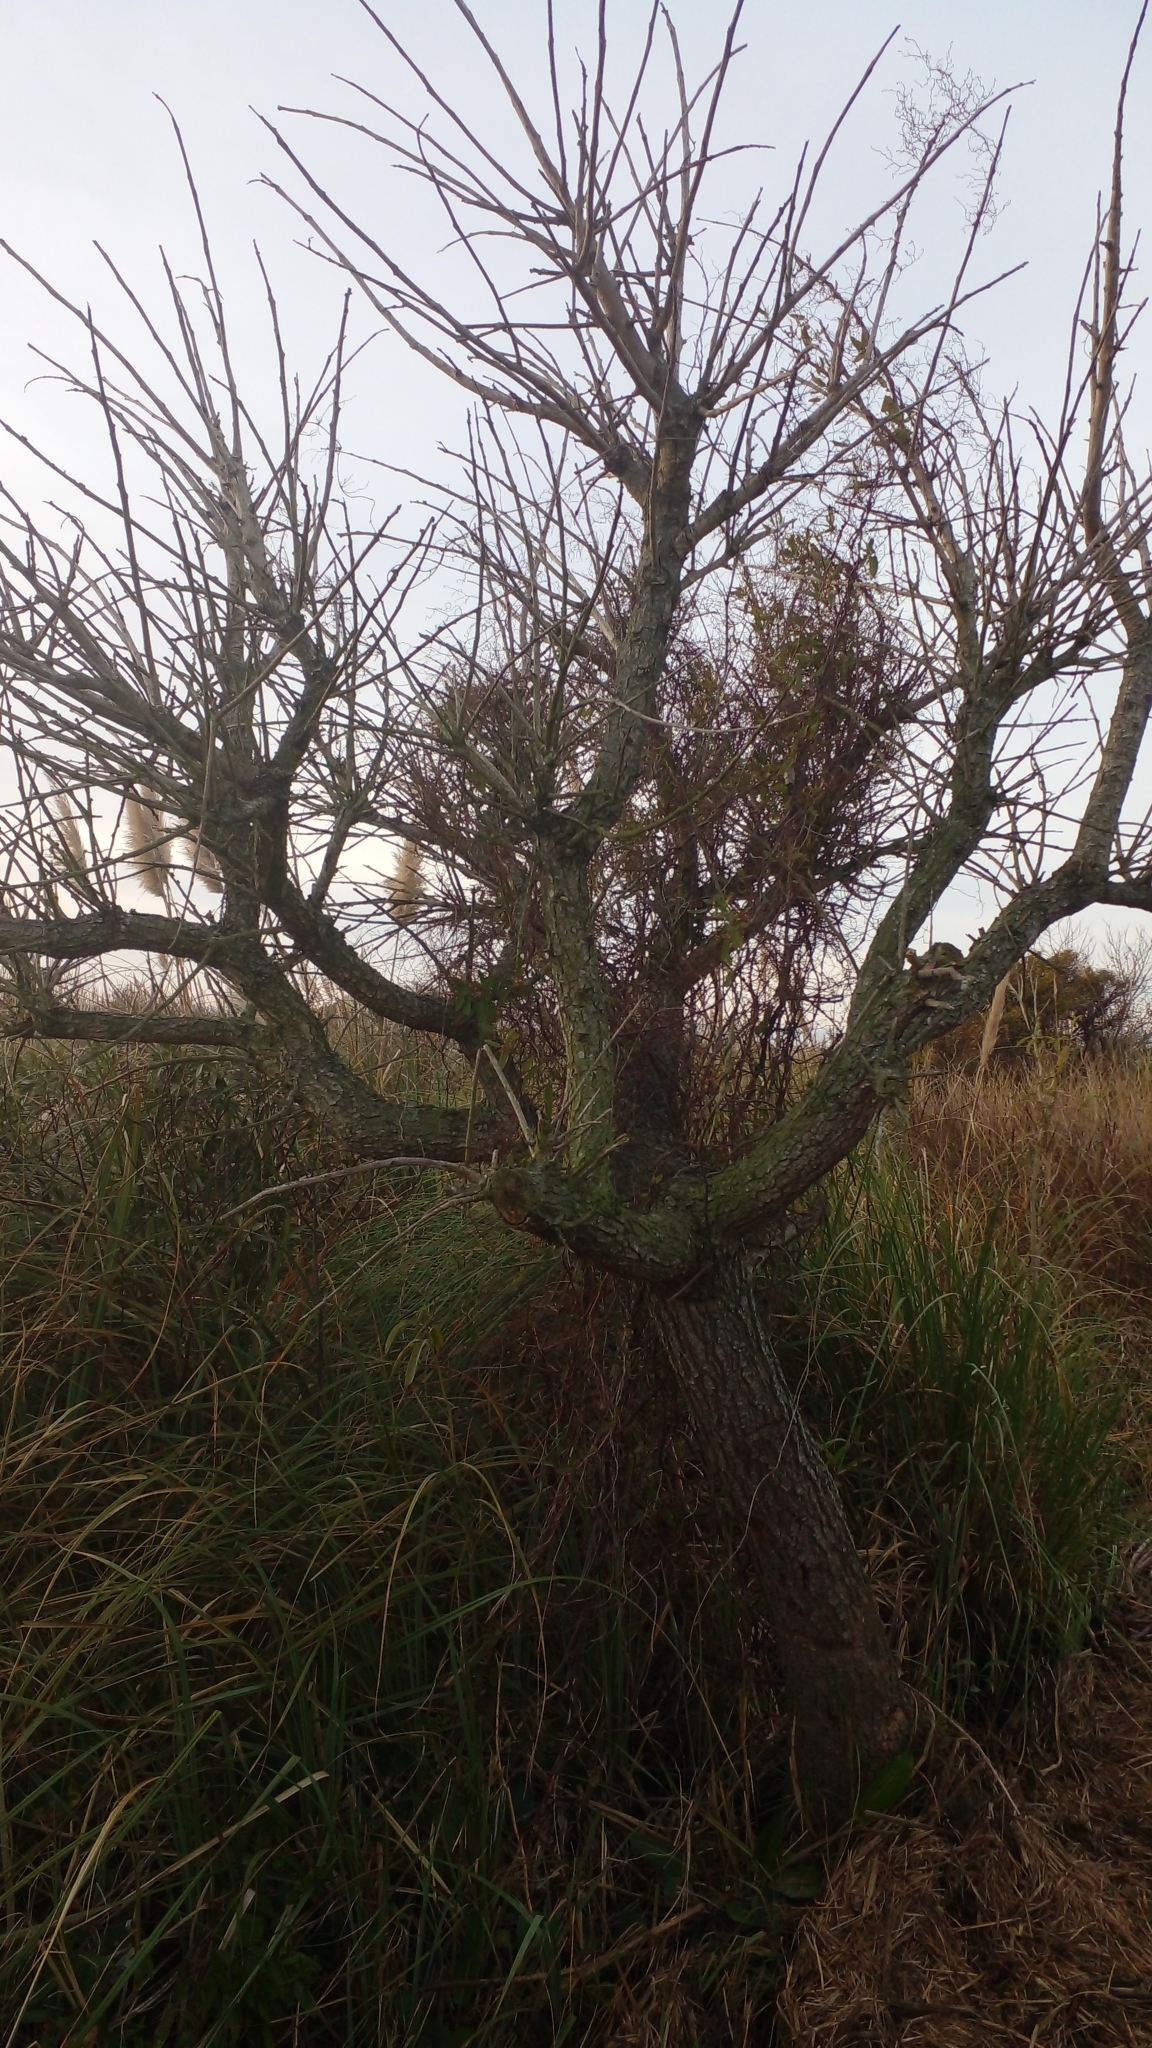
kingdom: Plantae
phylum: Tracheophyta
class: Magnoliopsida
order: Fabales
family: Fabaceae
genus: Erythrina
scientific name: Erythrina crista-galli
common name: Cockspur coral tree
